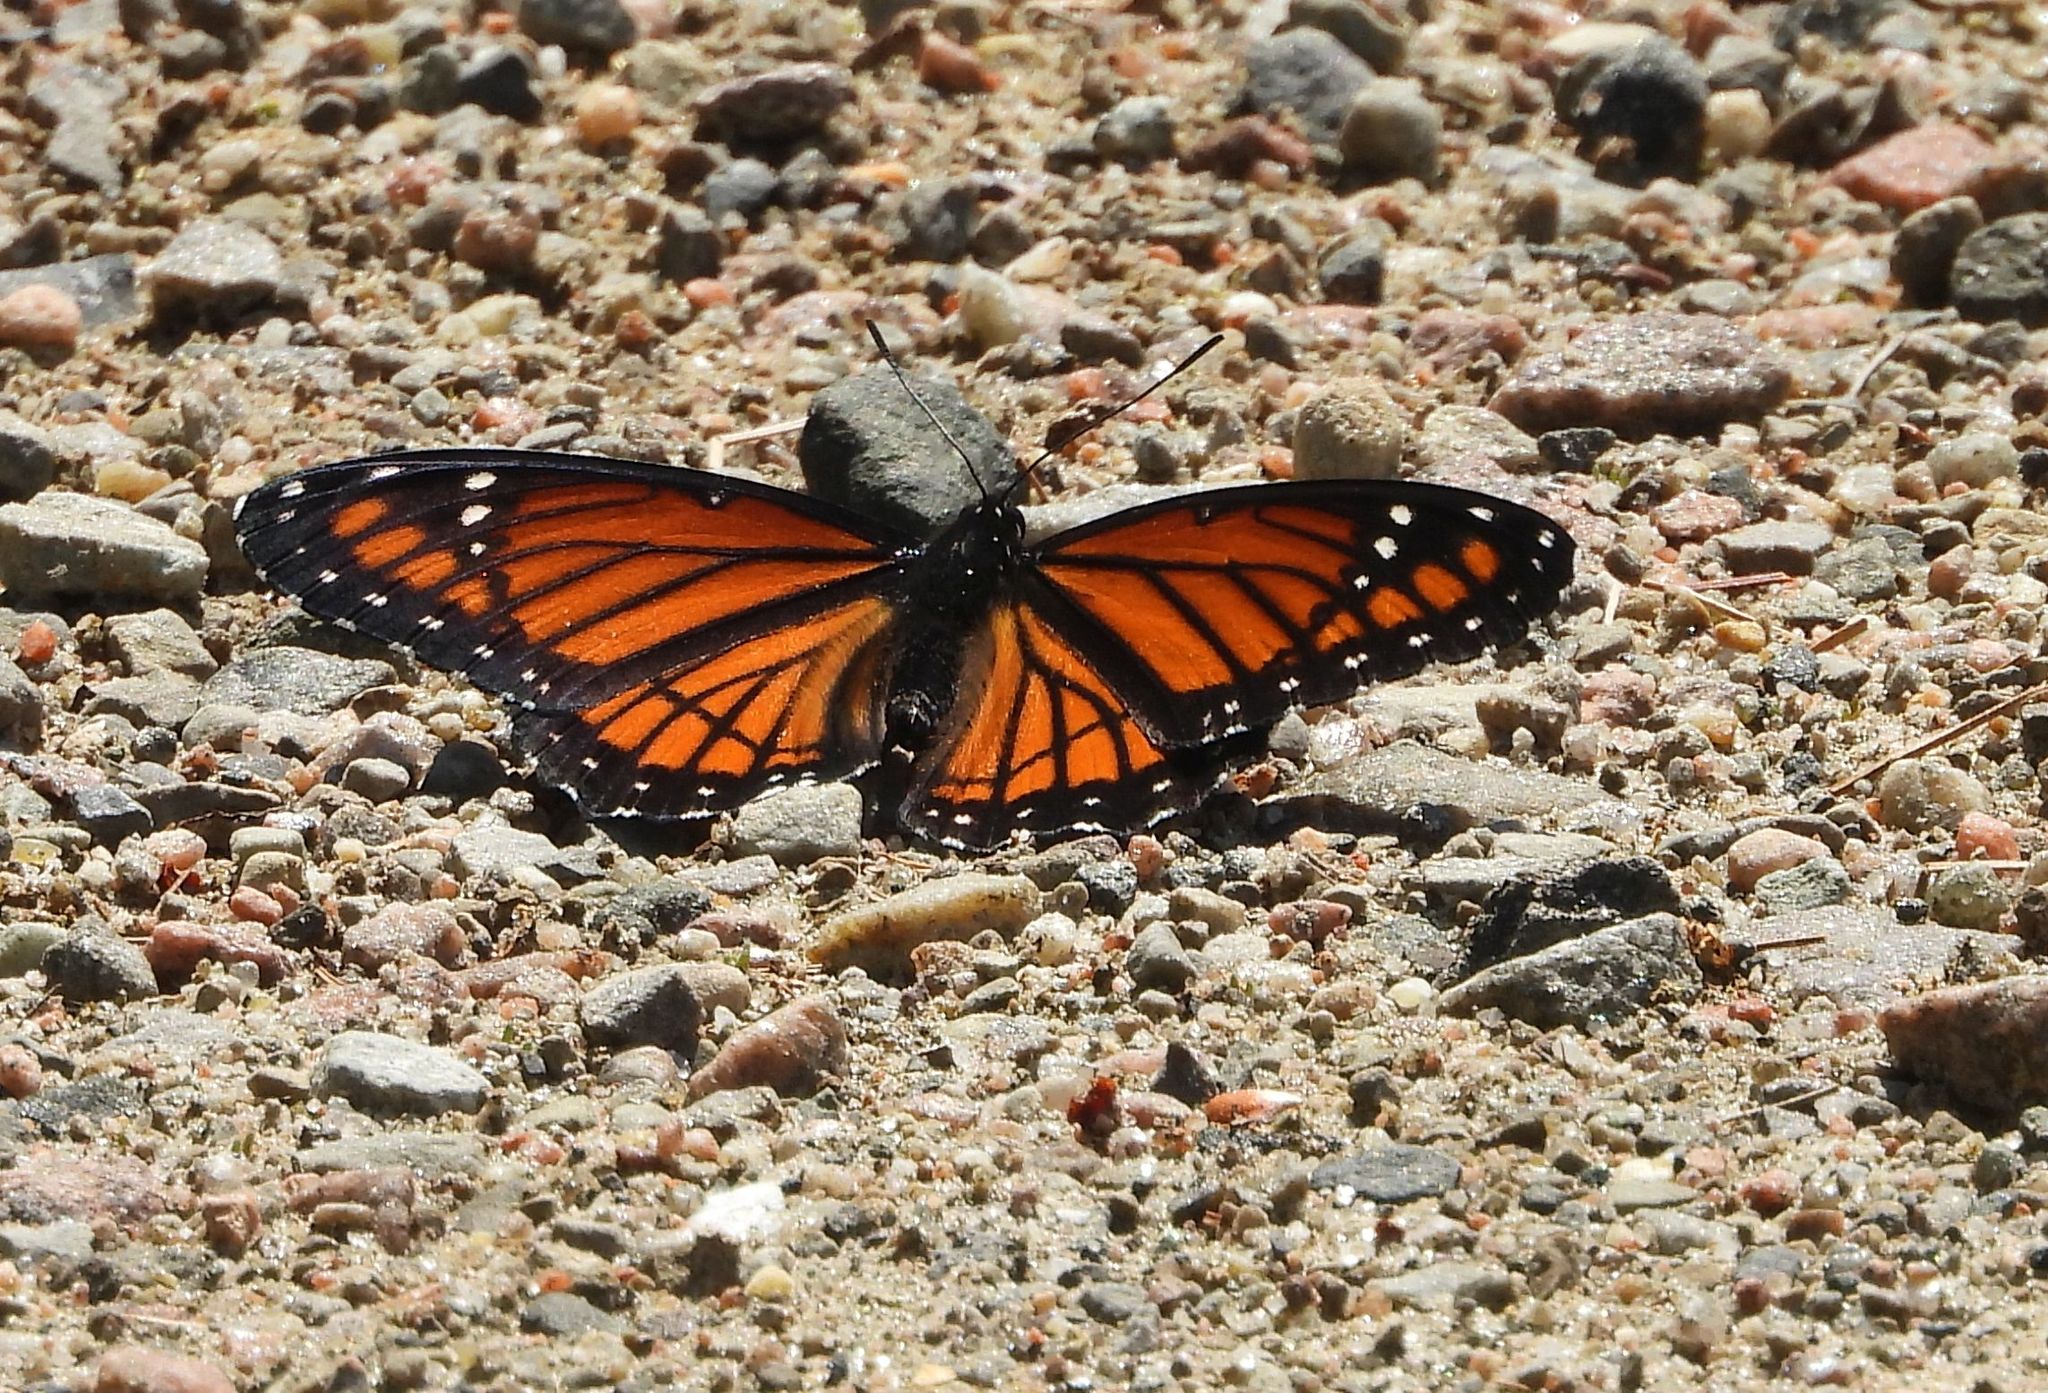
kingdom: Animalia
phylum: Arthropoda
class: Insecta
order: Lepidoptera
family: Nymphalidae
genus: Limenitis
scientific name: Limenitis archippus
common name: Viceroy
